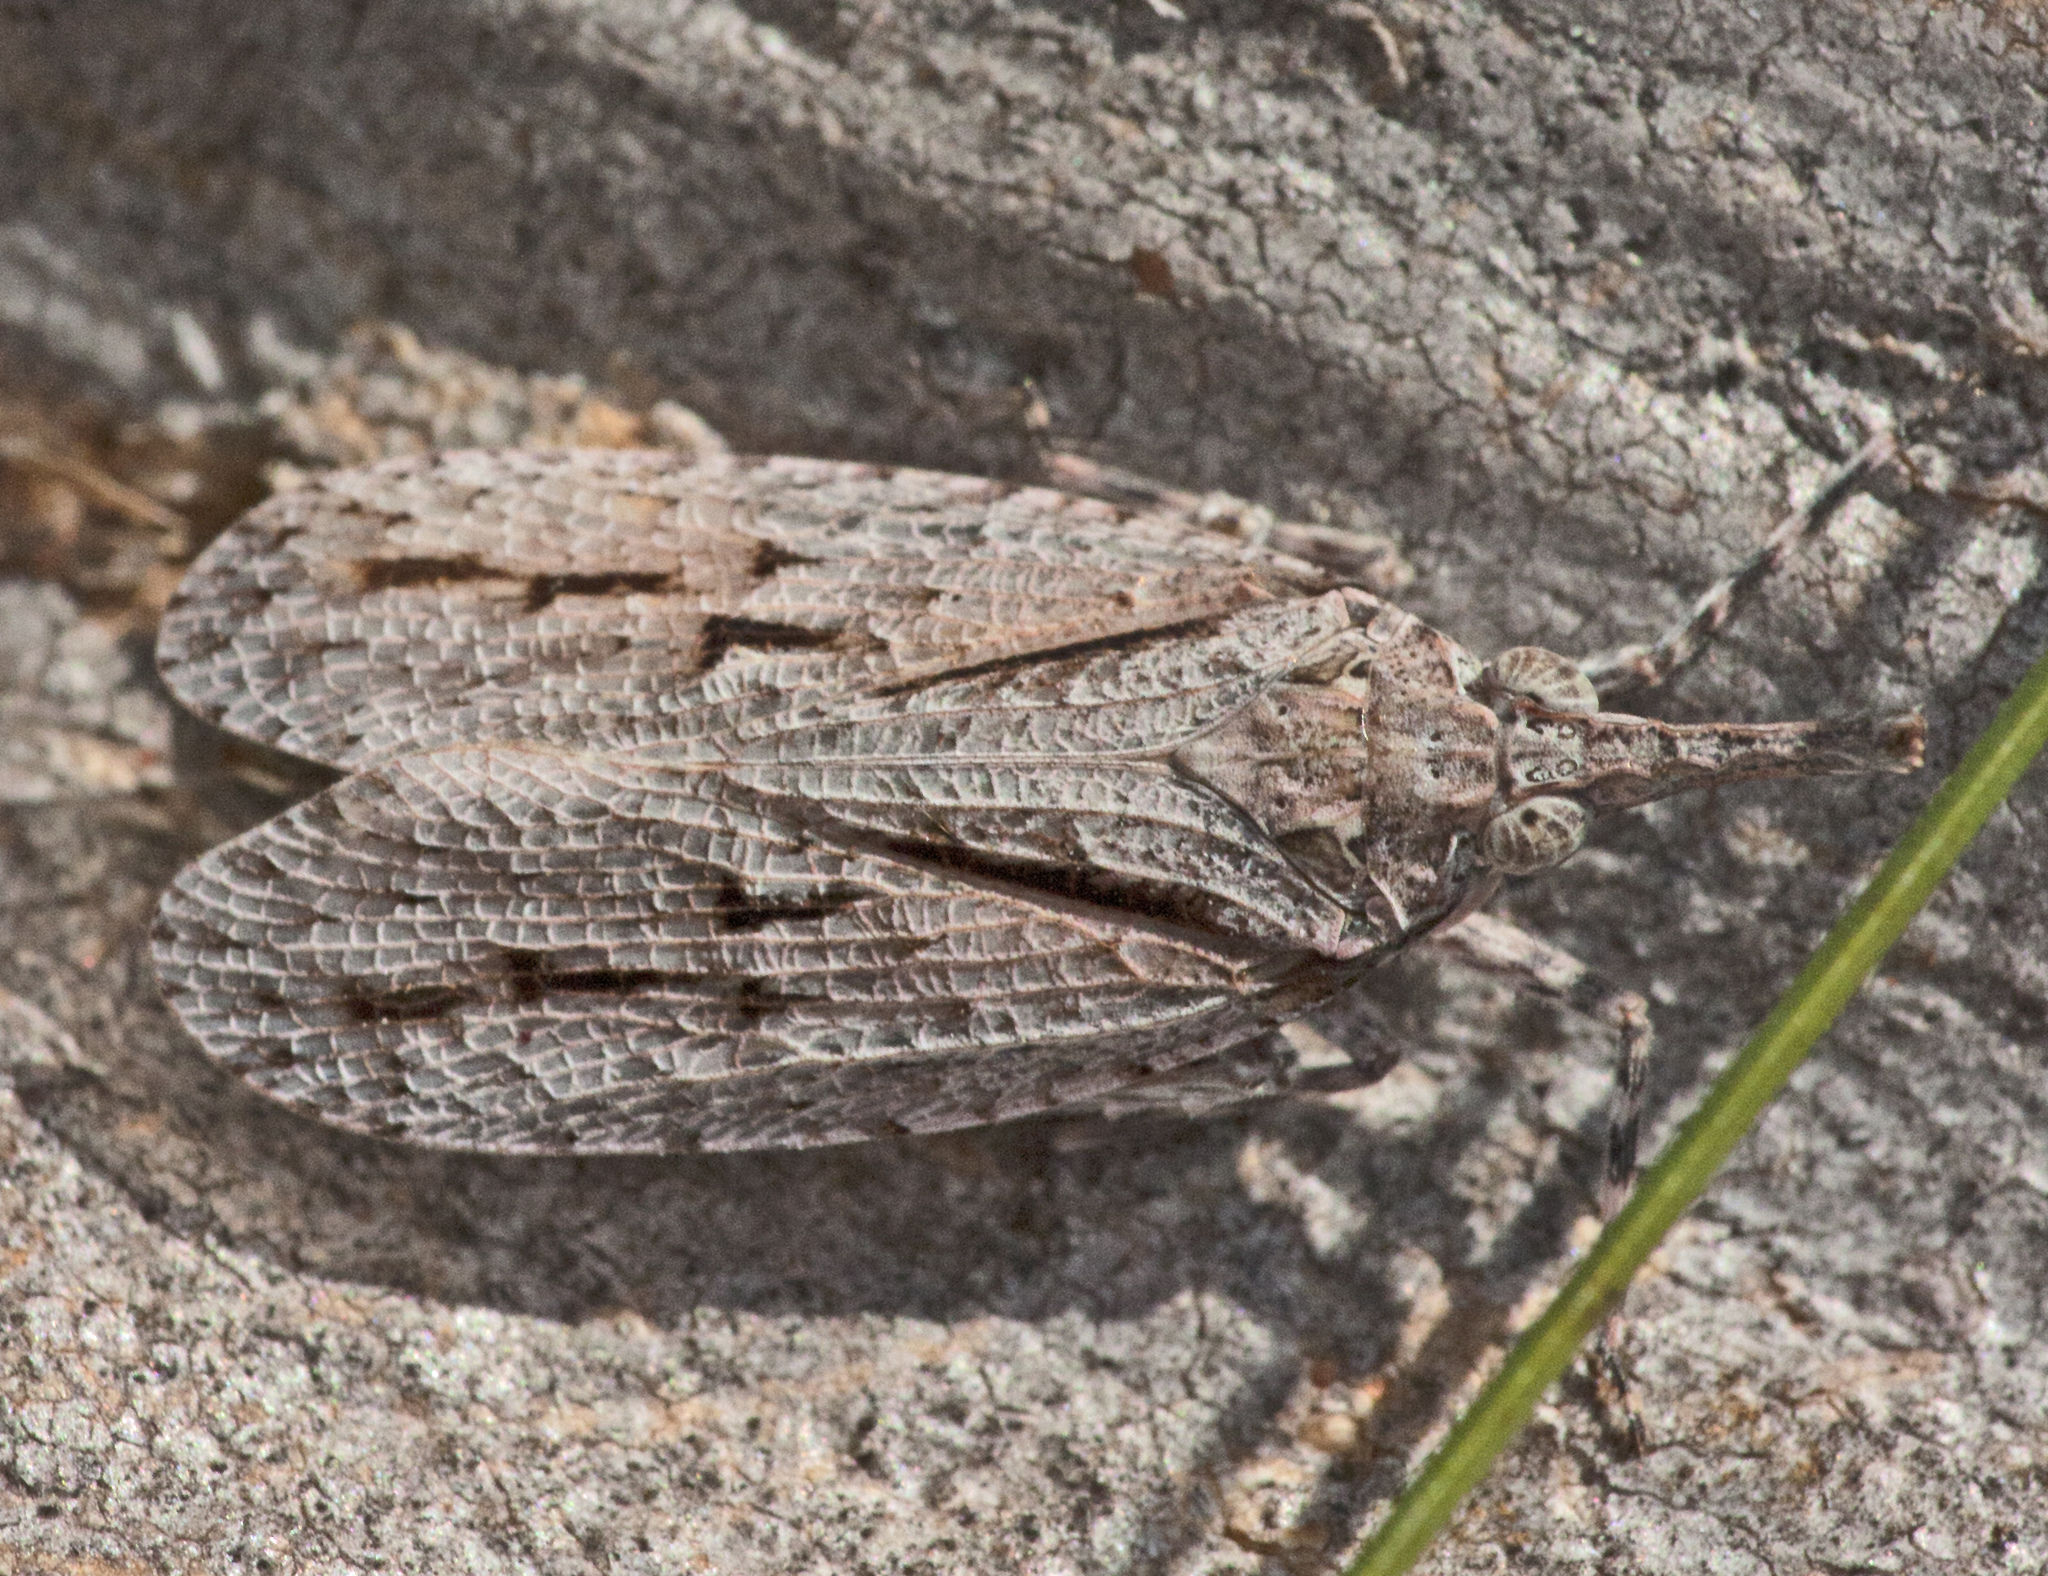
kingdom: Animalia
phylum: Arthropoda
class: Insecta
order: Hemiptera
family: Fulgoridae
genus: Eurinopsyche
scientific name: Eurinopsyche obscurata
